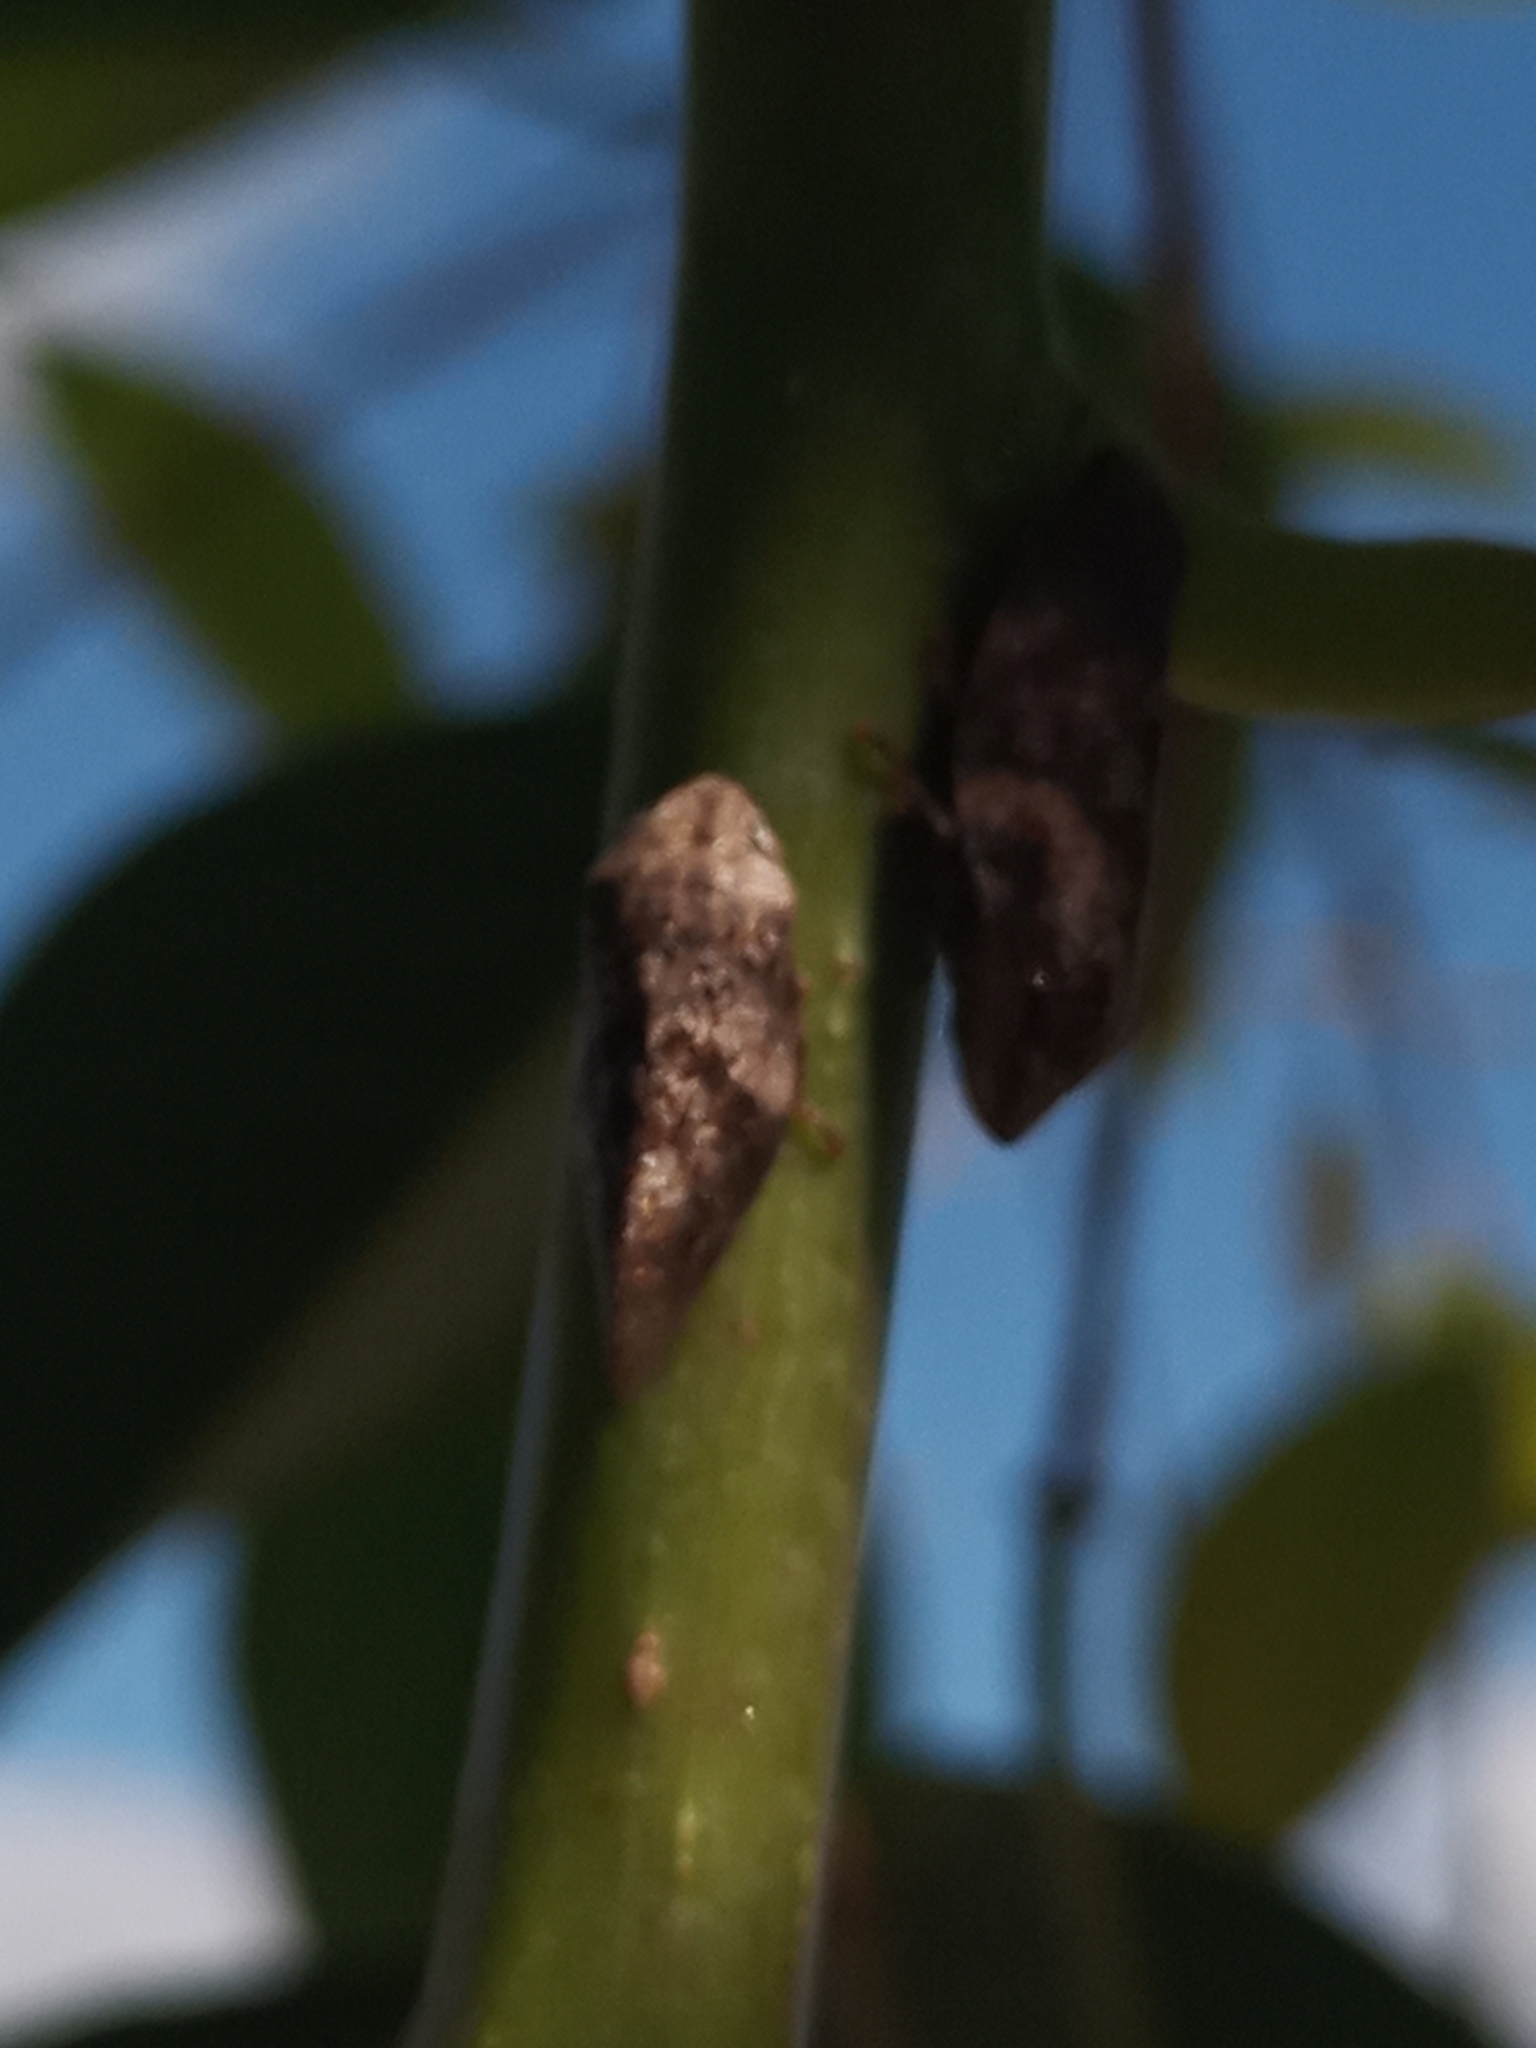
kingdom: Animalia
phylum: Arthropoda
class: Insecta
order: Hemiptera
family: Aphrophoridae
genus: Cephisus
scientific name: Cephisus siccifolius
